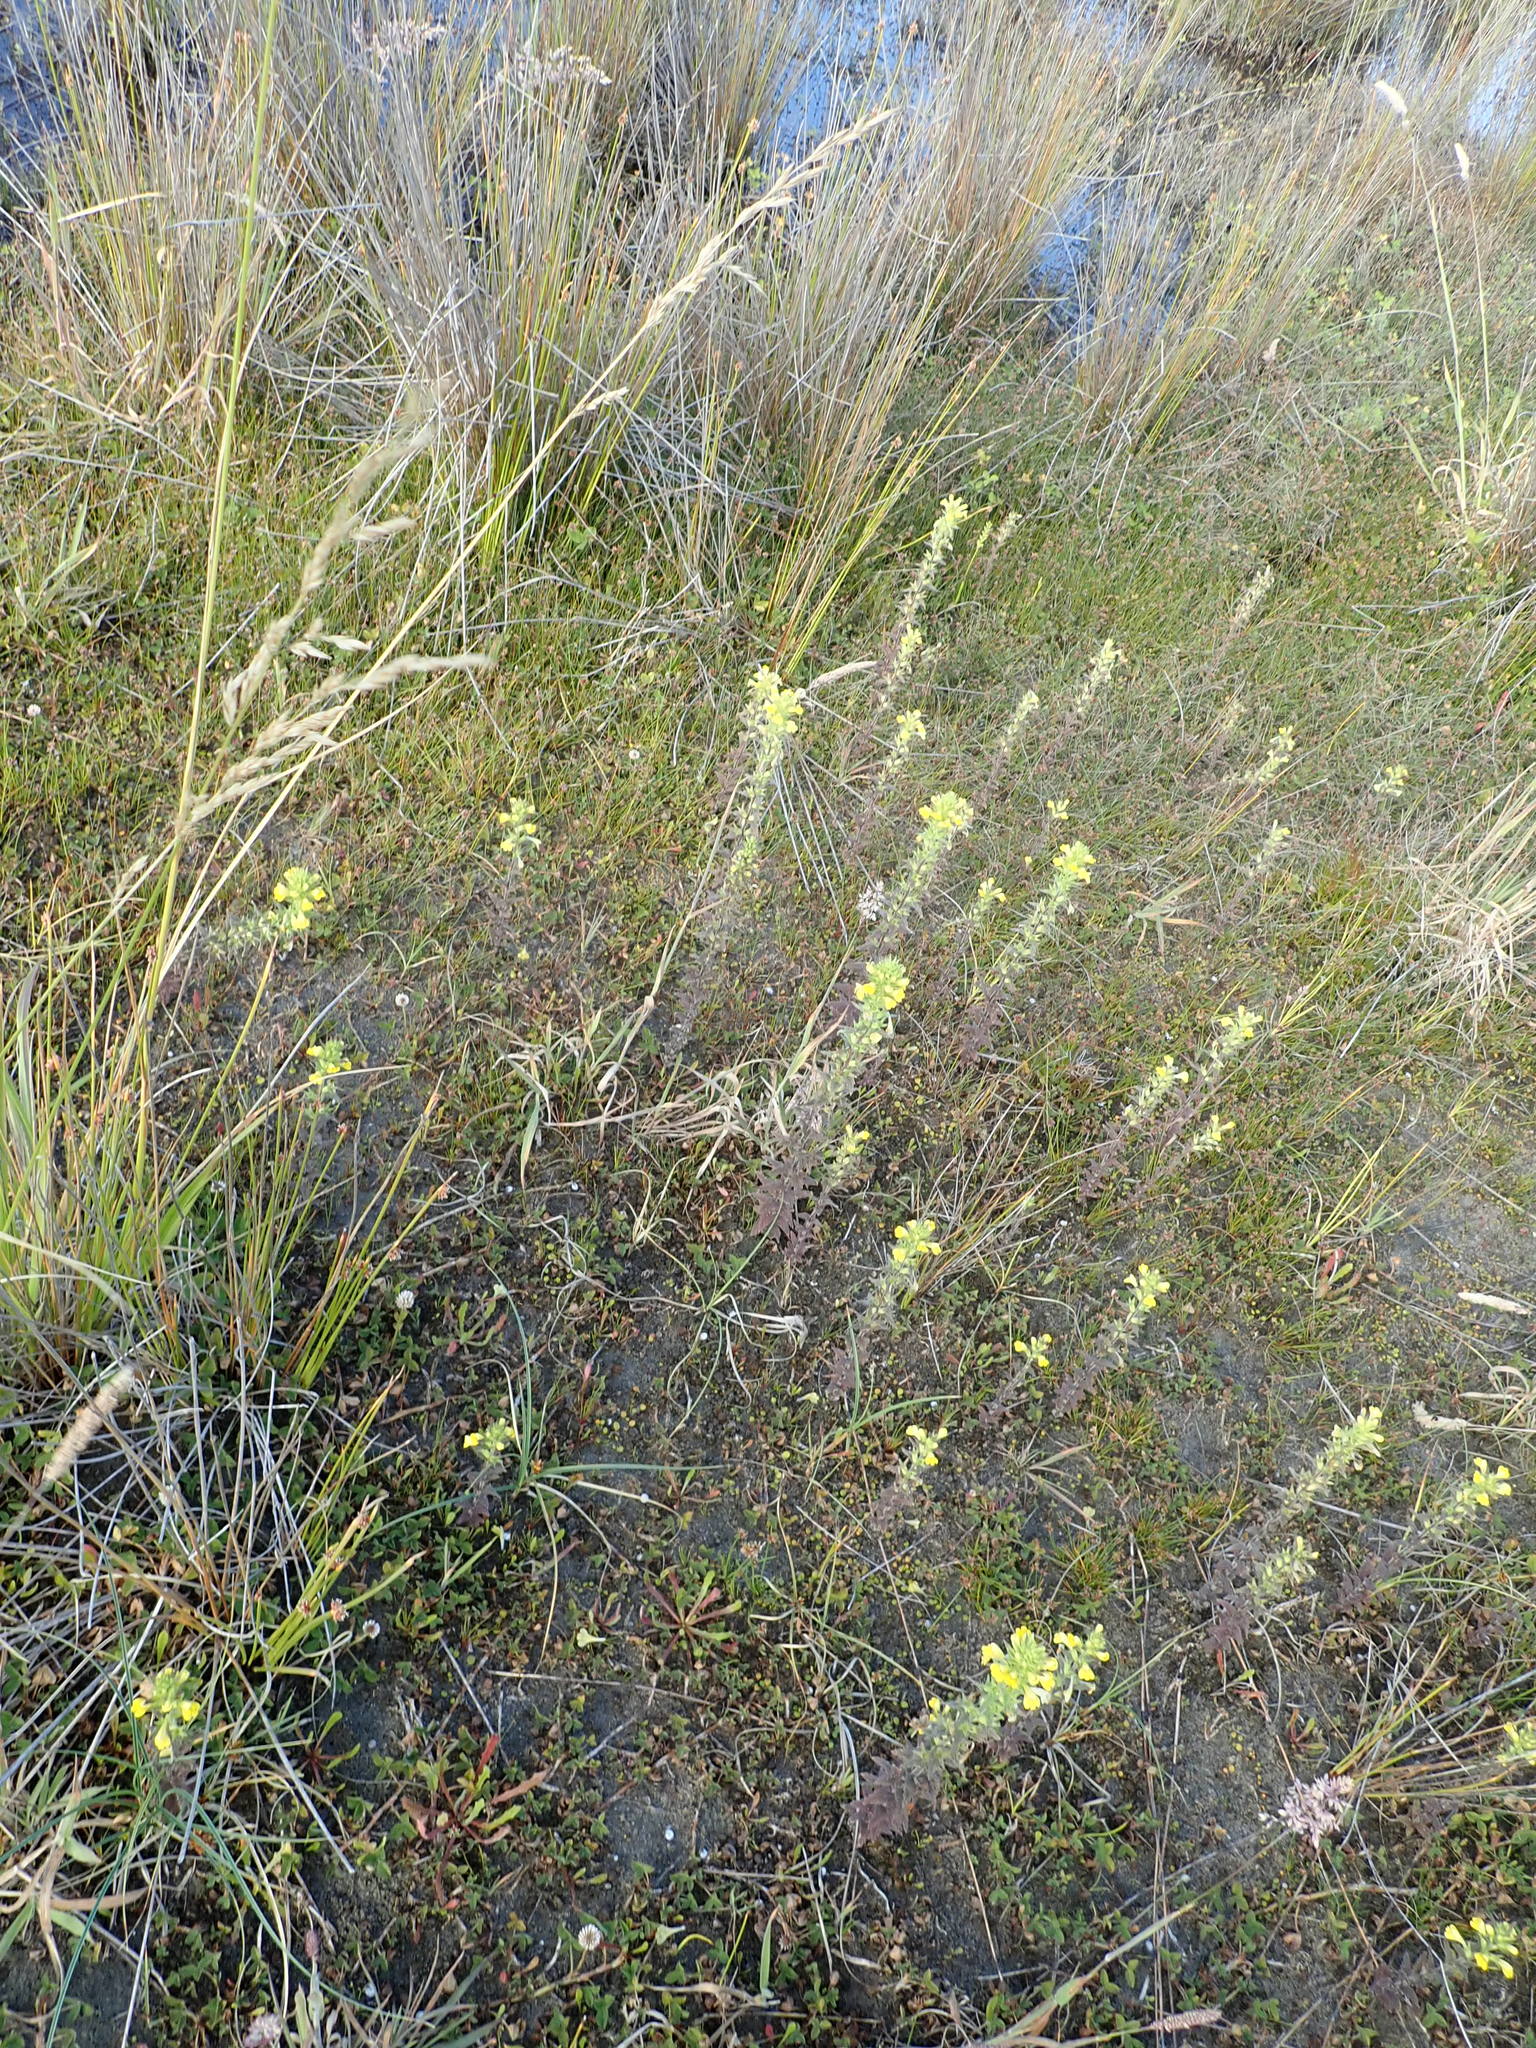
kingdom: Plantae
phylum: Tracheophyta
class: Magnoliopsida
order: Lamiales
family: Orobanchaceae
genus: Bellardia
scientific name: Bellardia viscosa
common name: Sticky parentucellia
